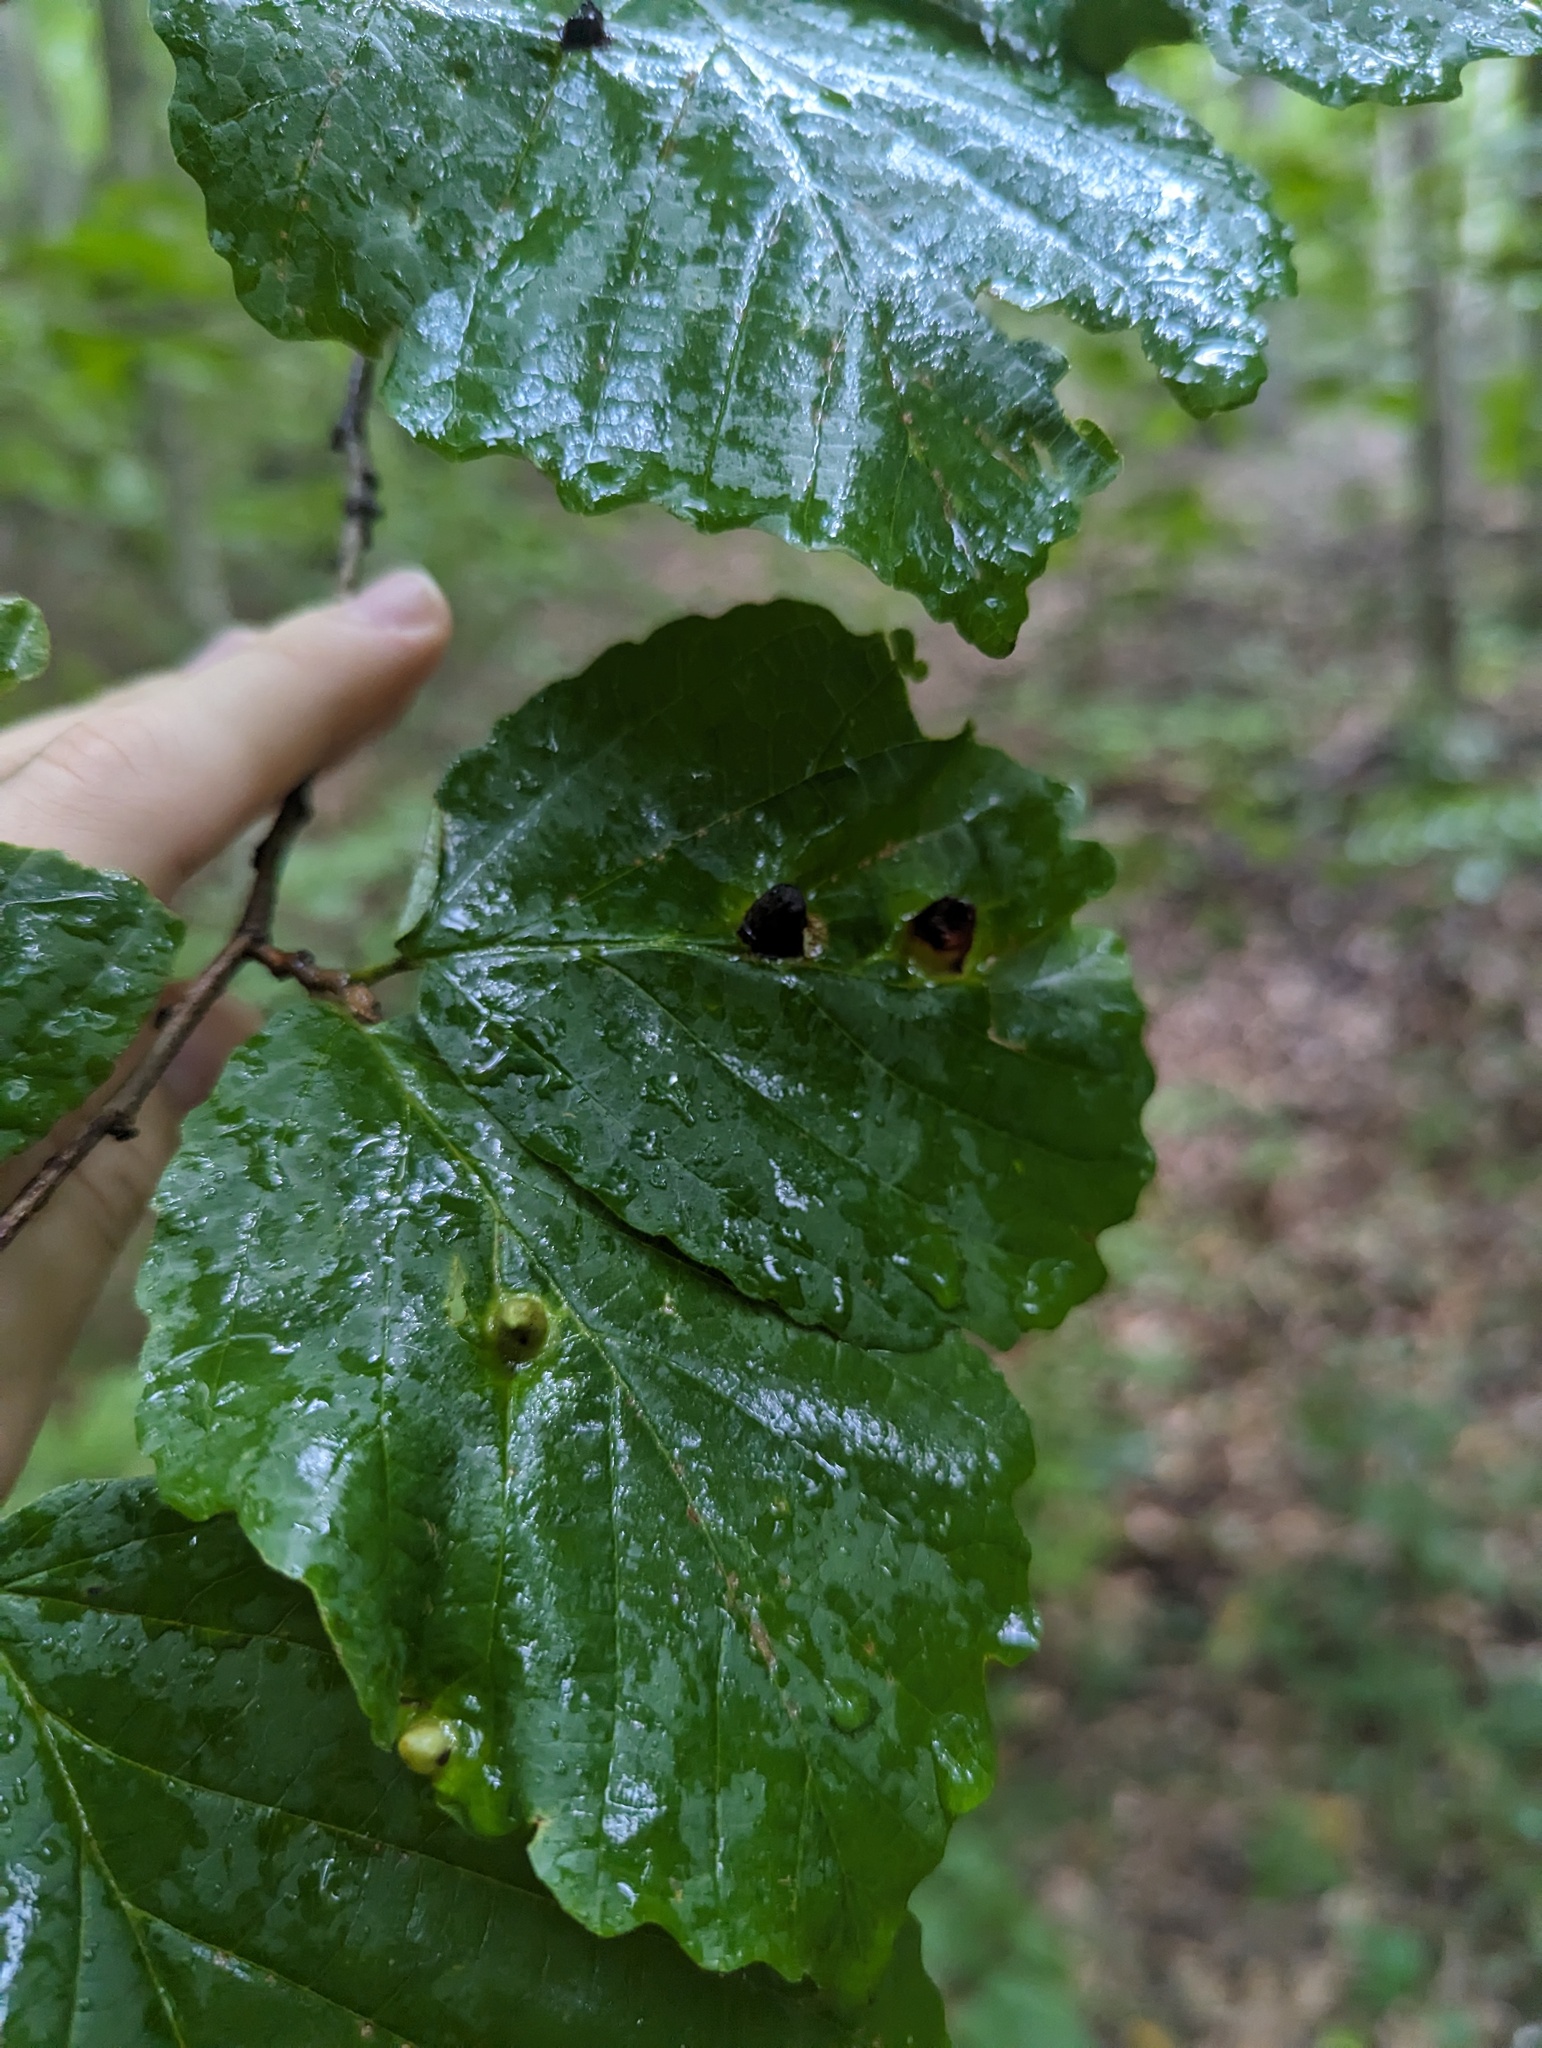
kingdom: Animalia
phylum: Arthropoda
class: Insecta
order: Hemiptera
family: Aphididae
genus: Hormaphis
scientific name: Hormaphis hamamelidis
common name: Witch-hazel cone gall aphid
